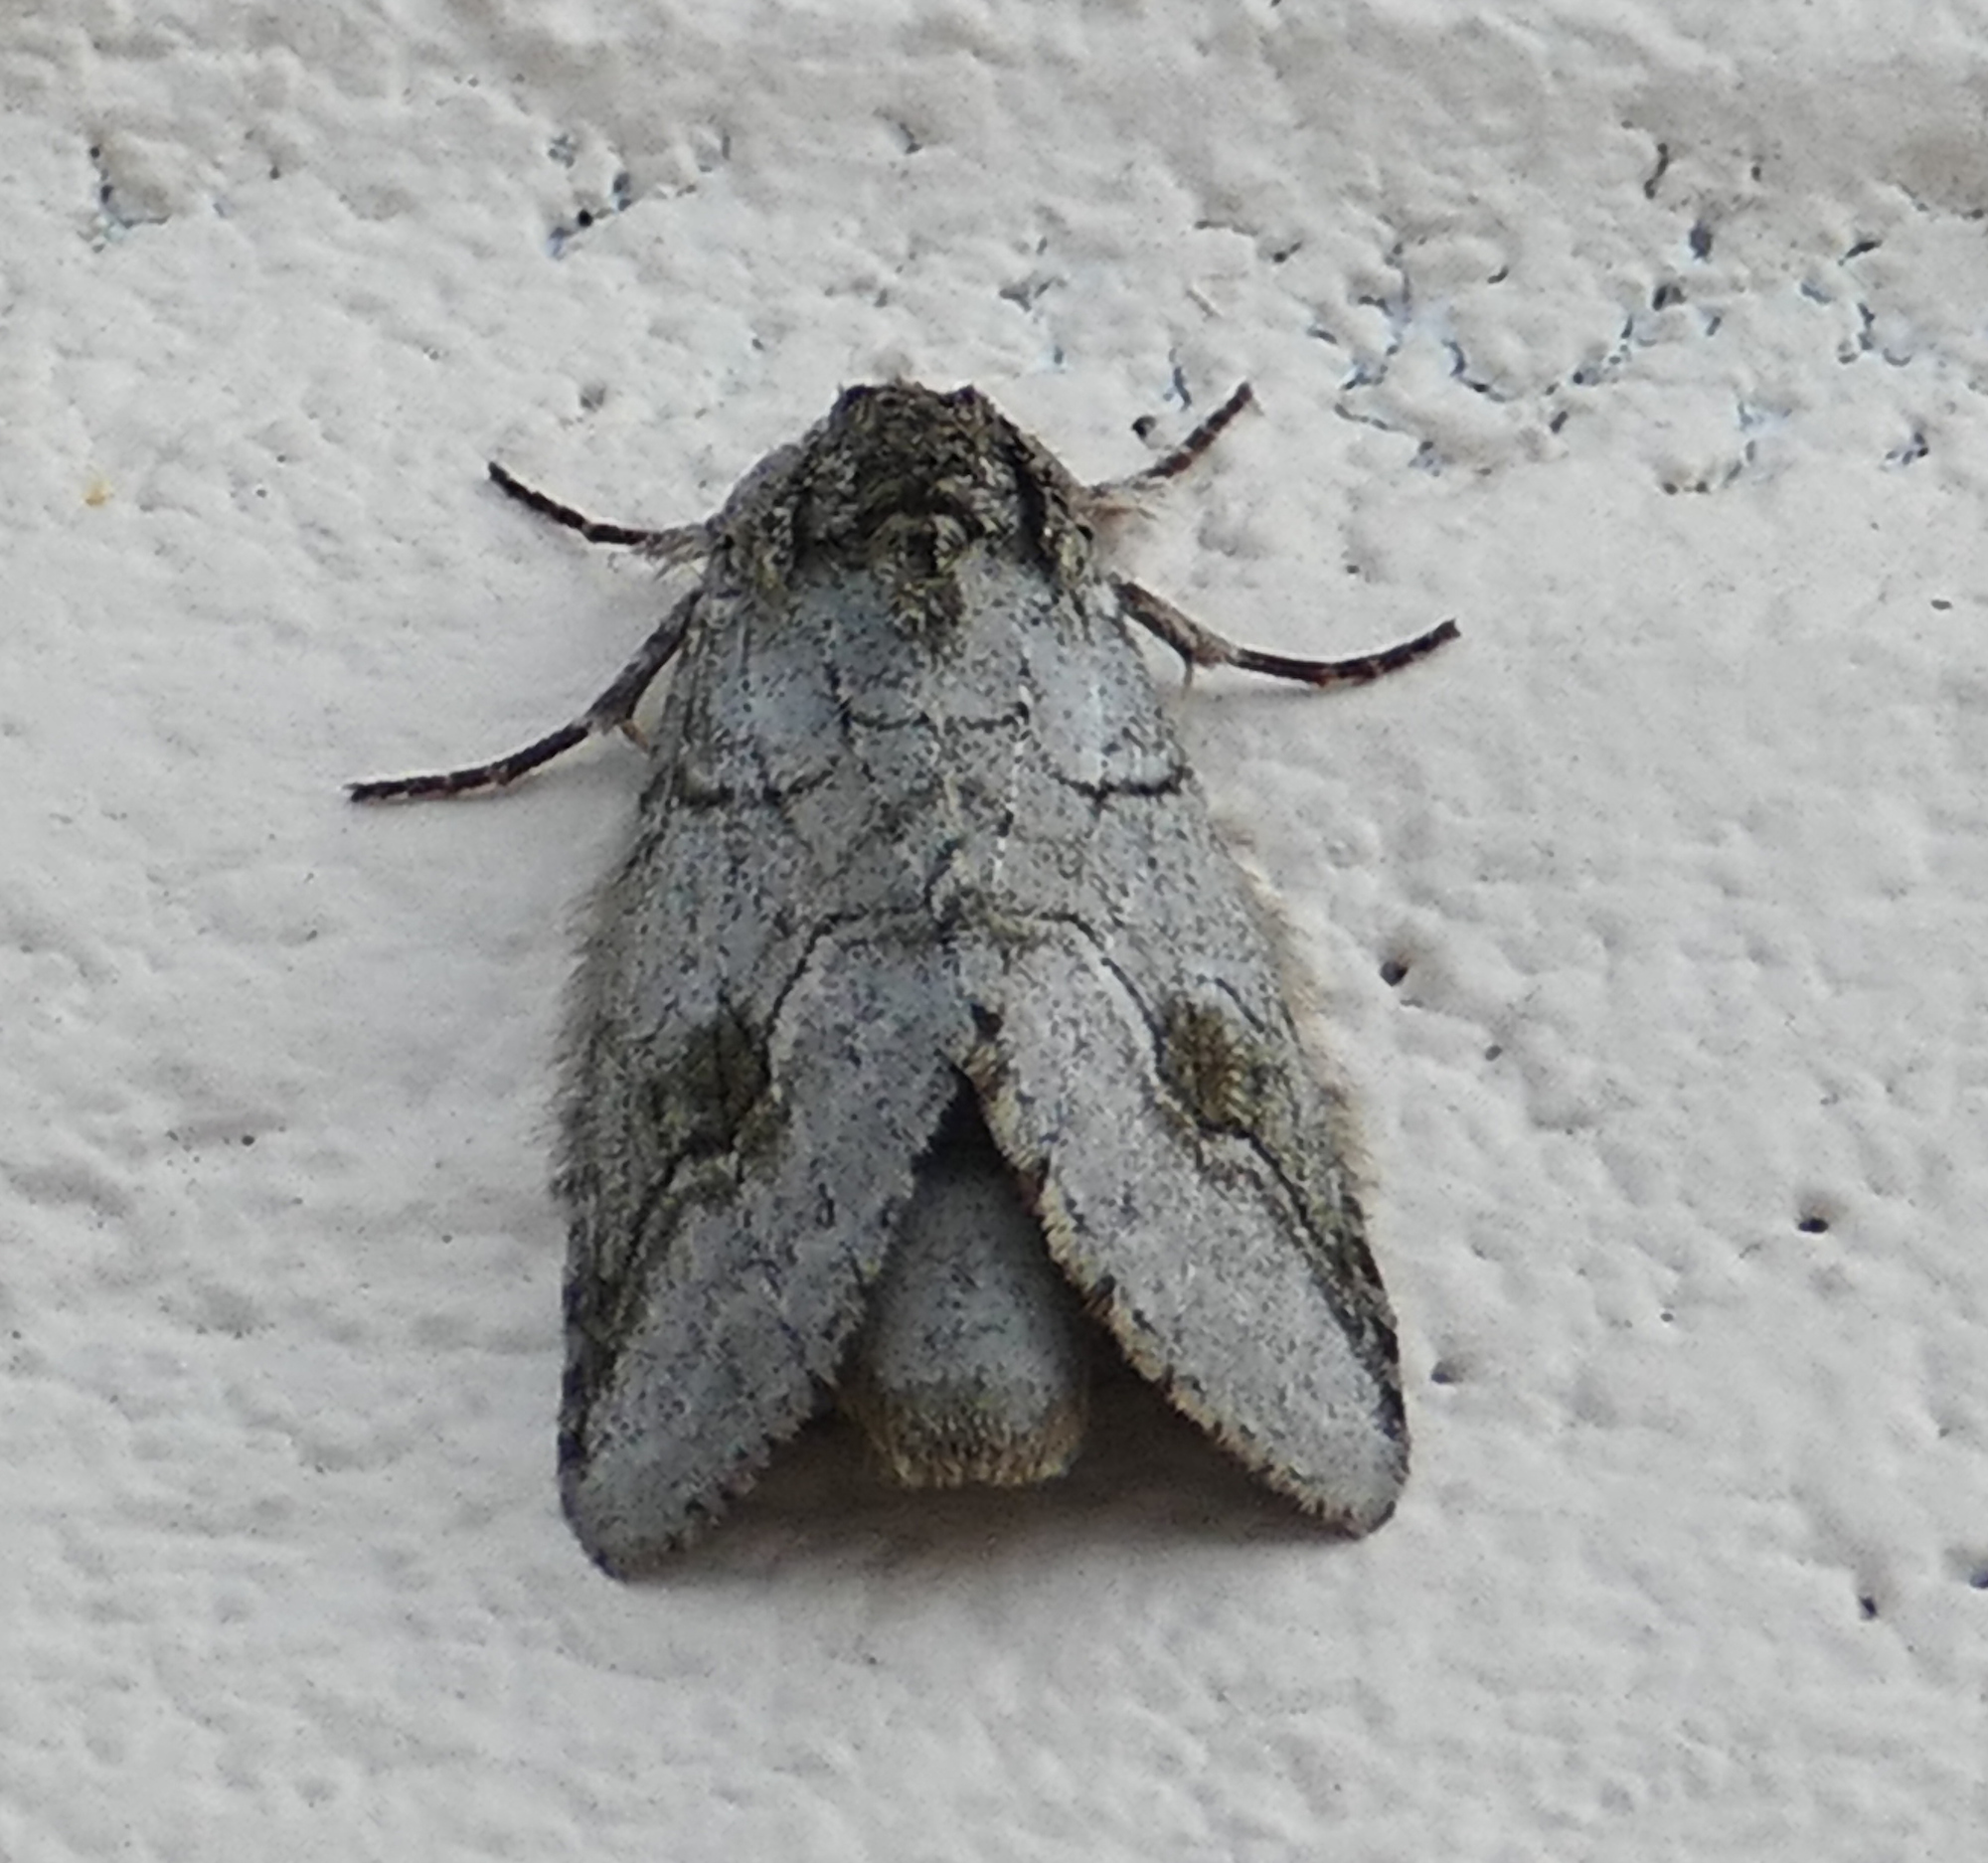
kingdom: Animalia
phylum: Arthropoda
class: Insecta
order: Lepidoptera
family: Notodontidae
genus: Lochmaeus
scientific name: Lochmaeus bilineata
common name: Double-lined prominent
